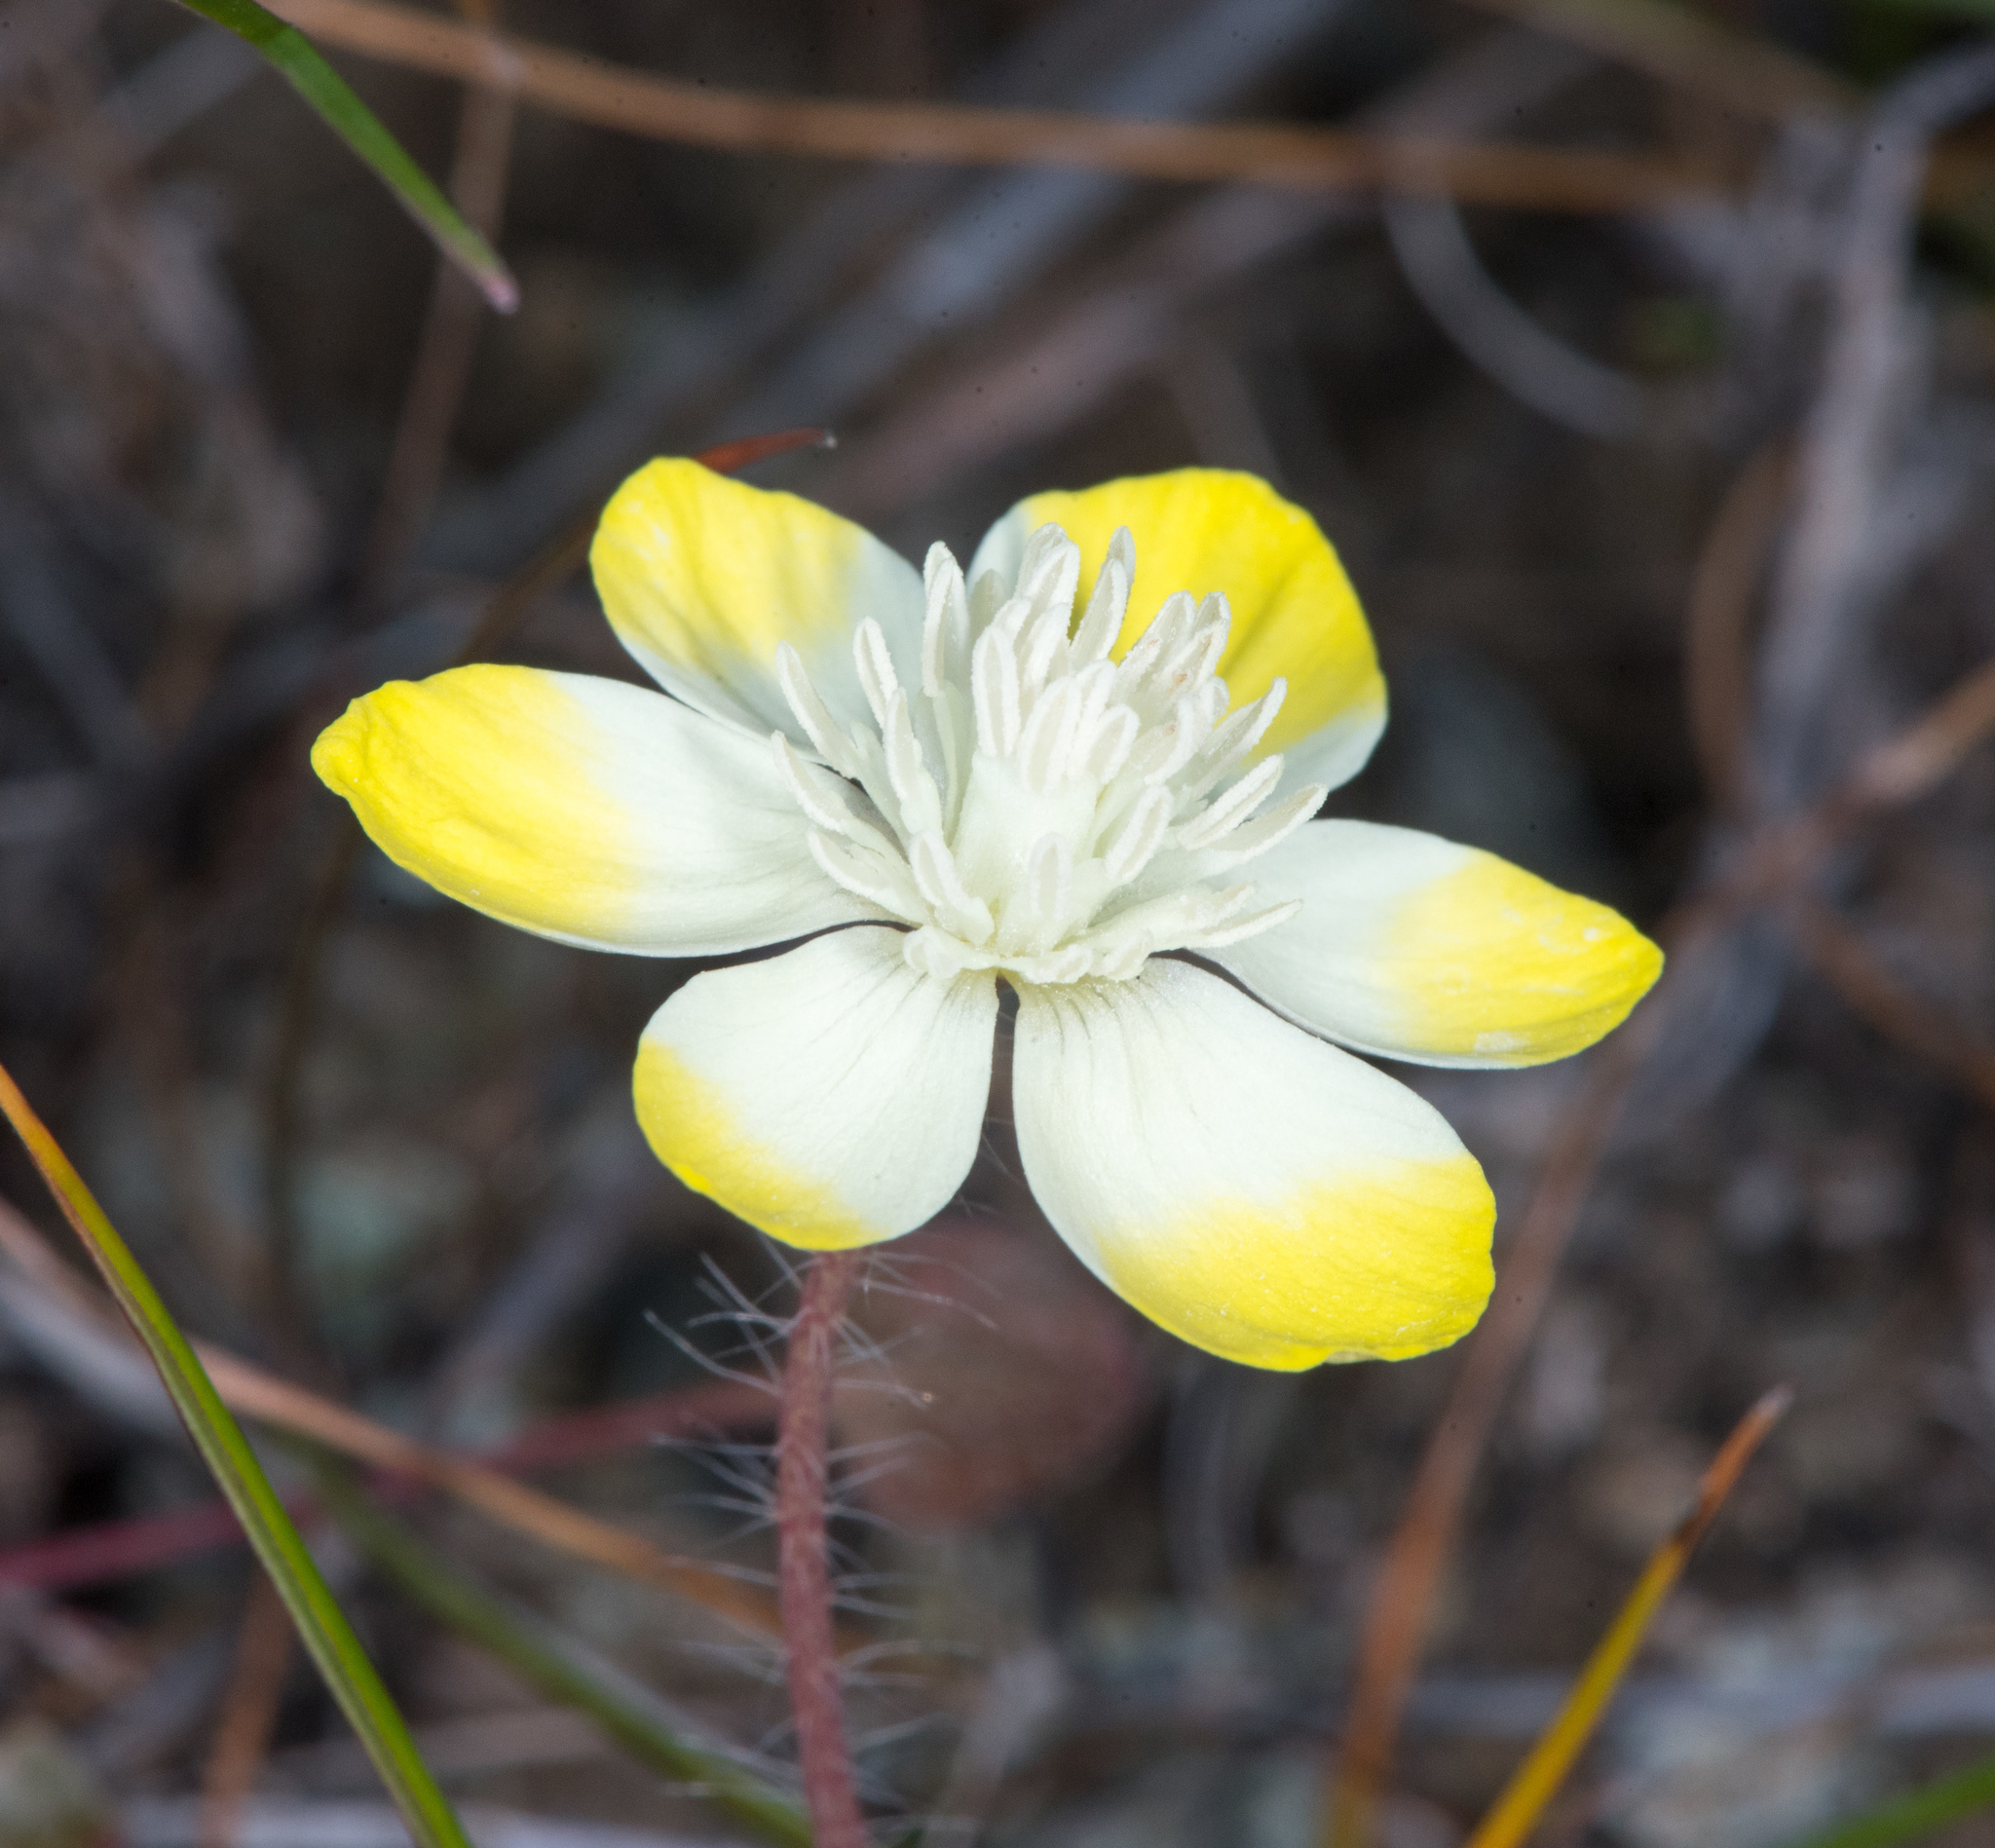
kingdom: Plantae
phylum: Tracheophyta
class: Magnoliopsida
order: Ranunculales
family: Papaveraceae
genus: Platystemon
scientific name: Platystemon californicus
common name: Cream-cups
